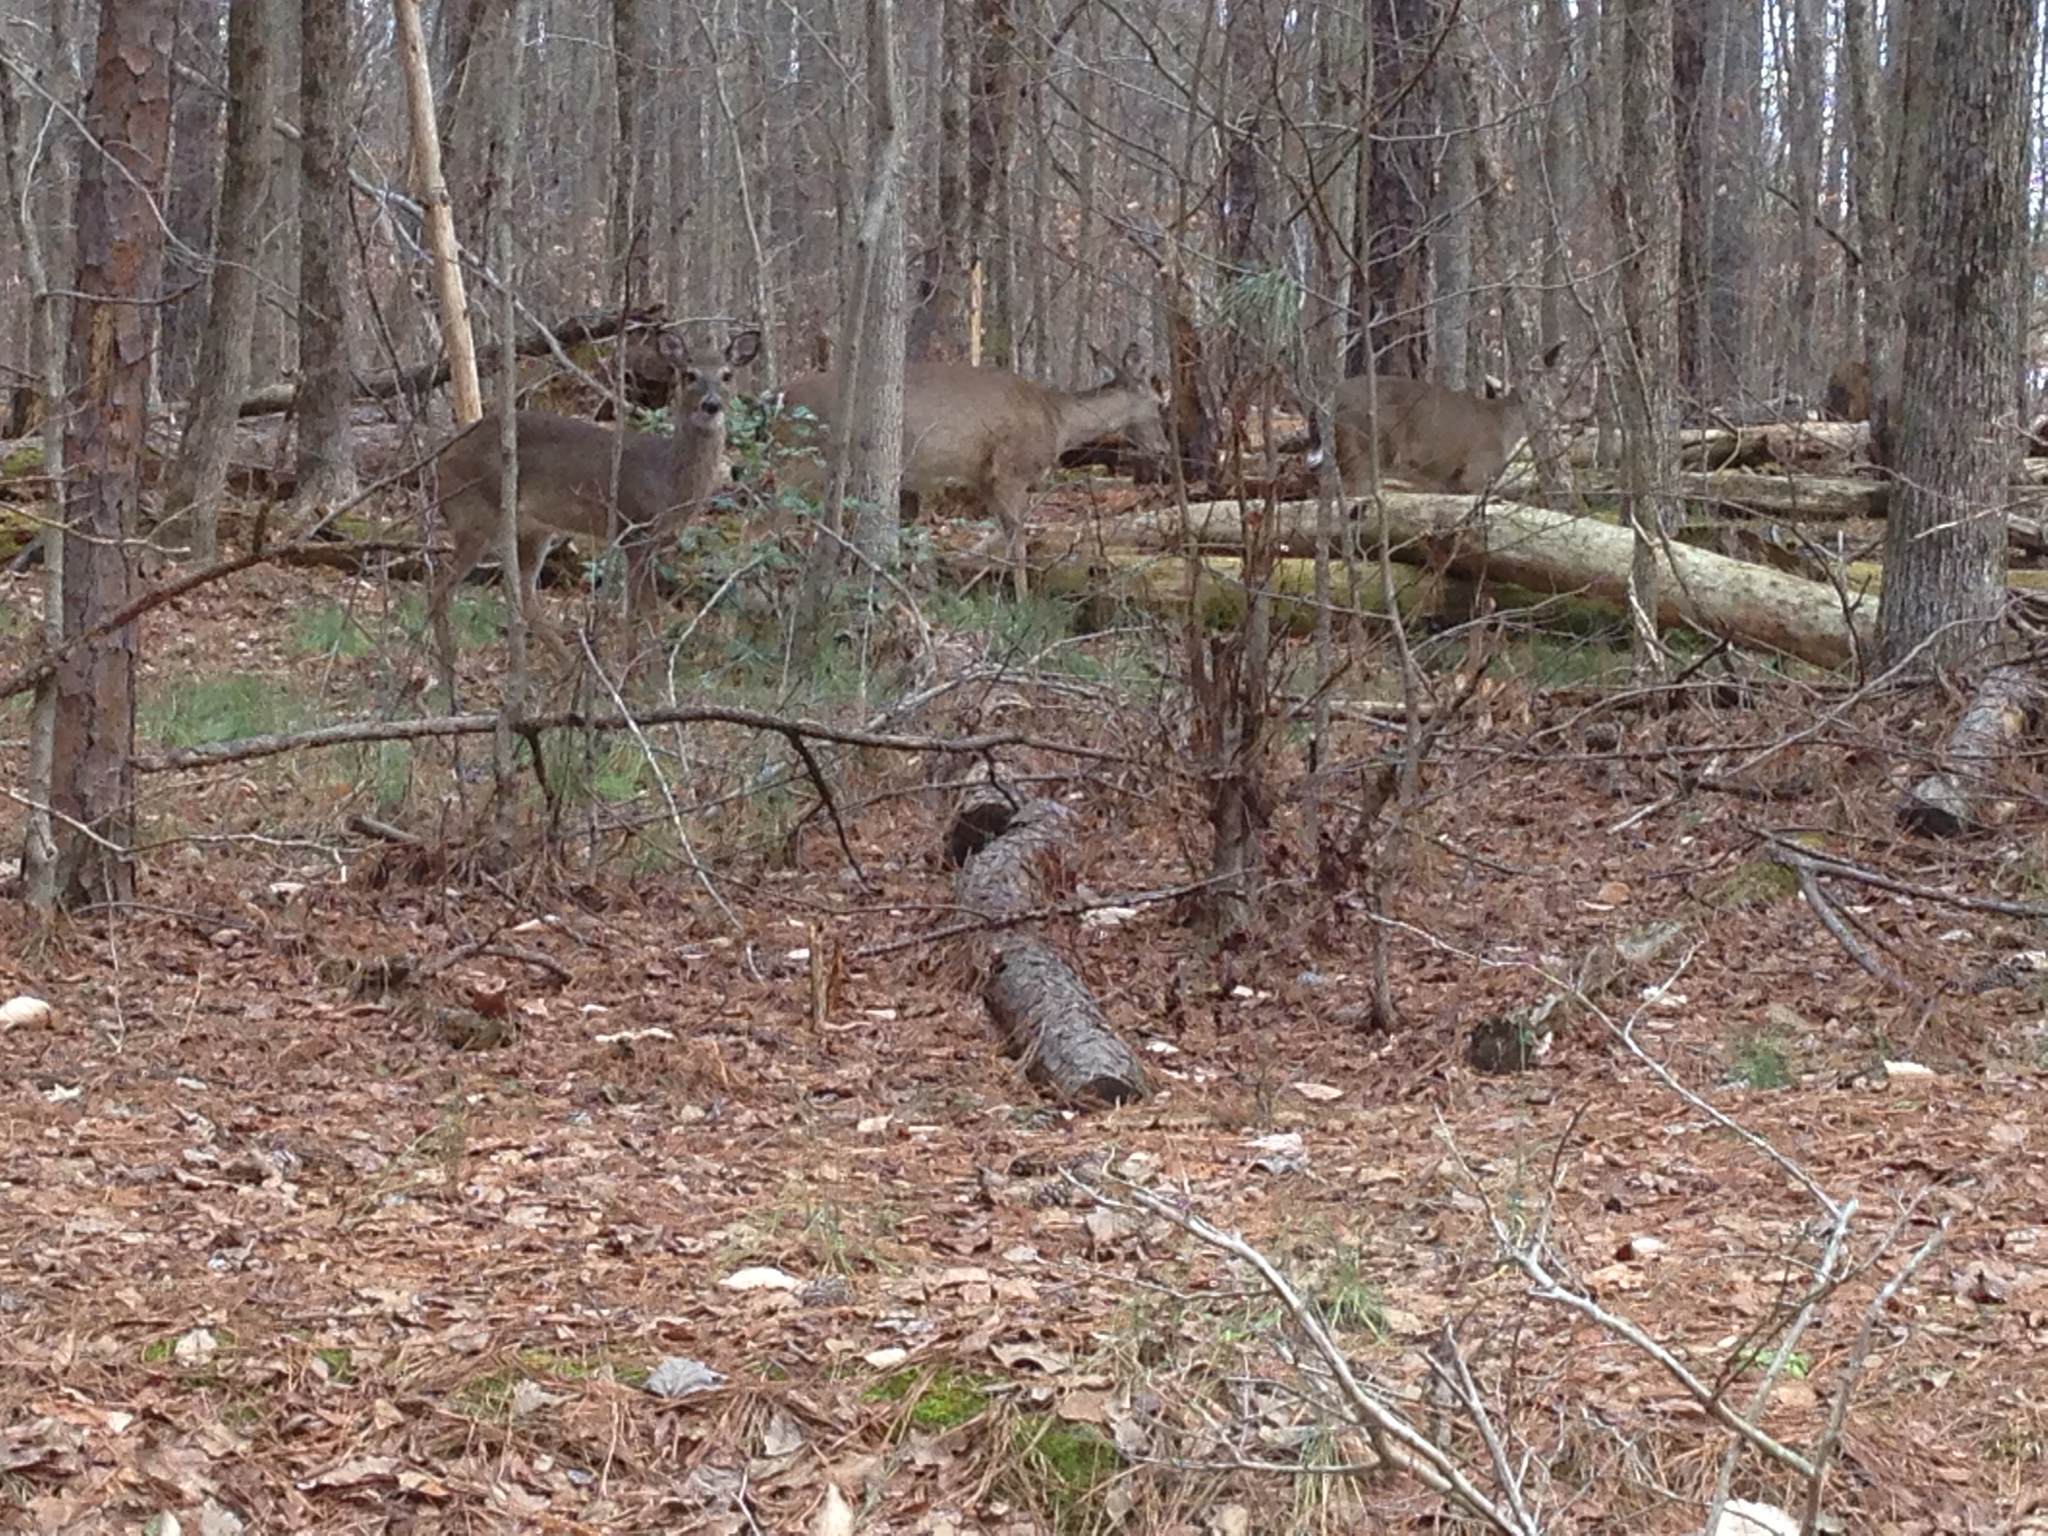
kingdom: Animalia
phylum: Chordata
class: Mammalia
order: Artiodactyla
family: Cervidae
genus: Odocoileus
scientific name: Odocoileus virginianus
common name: White-tailed deer
